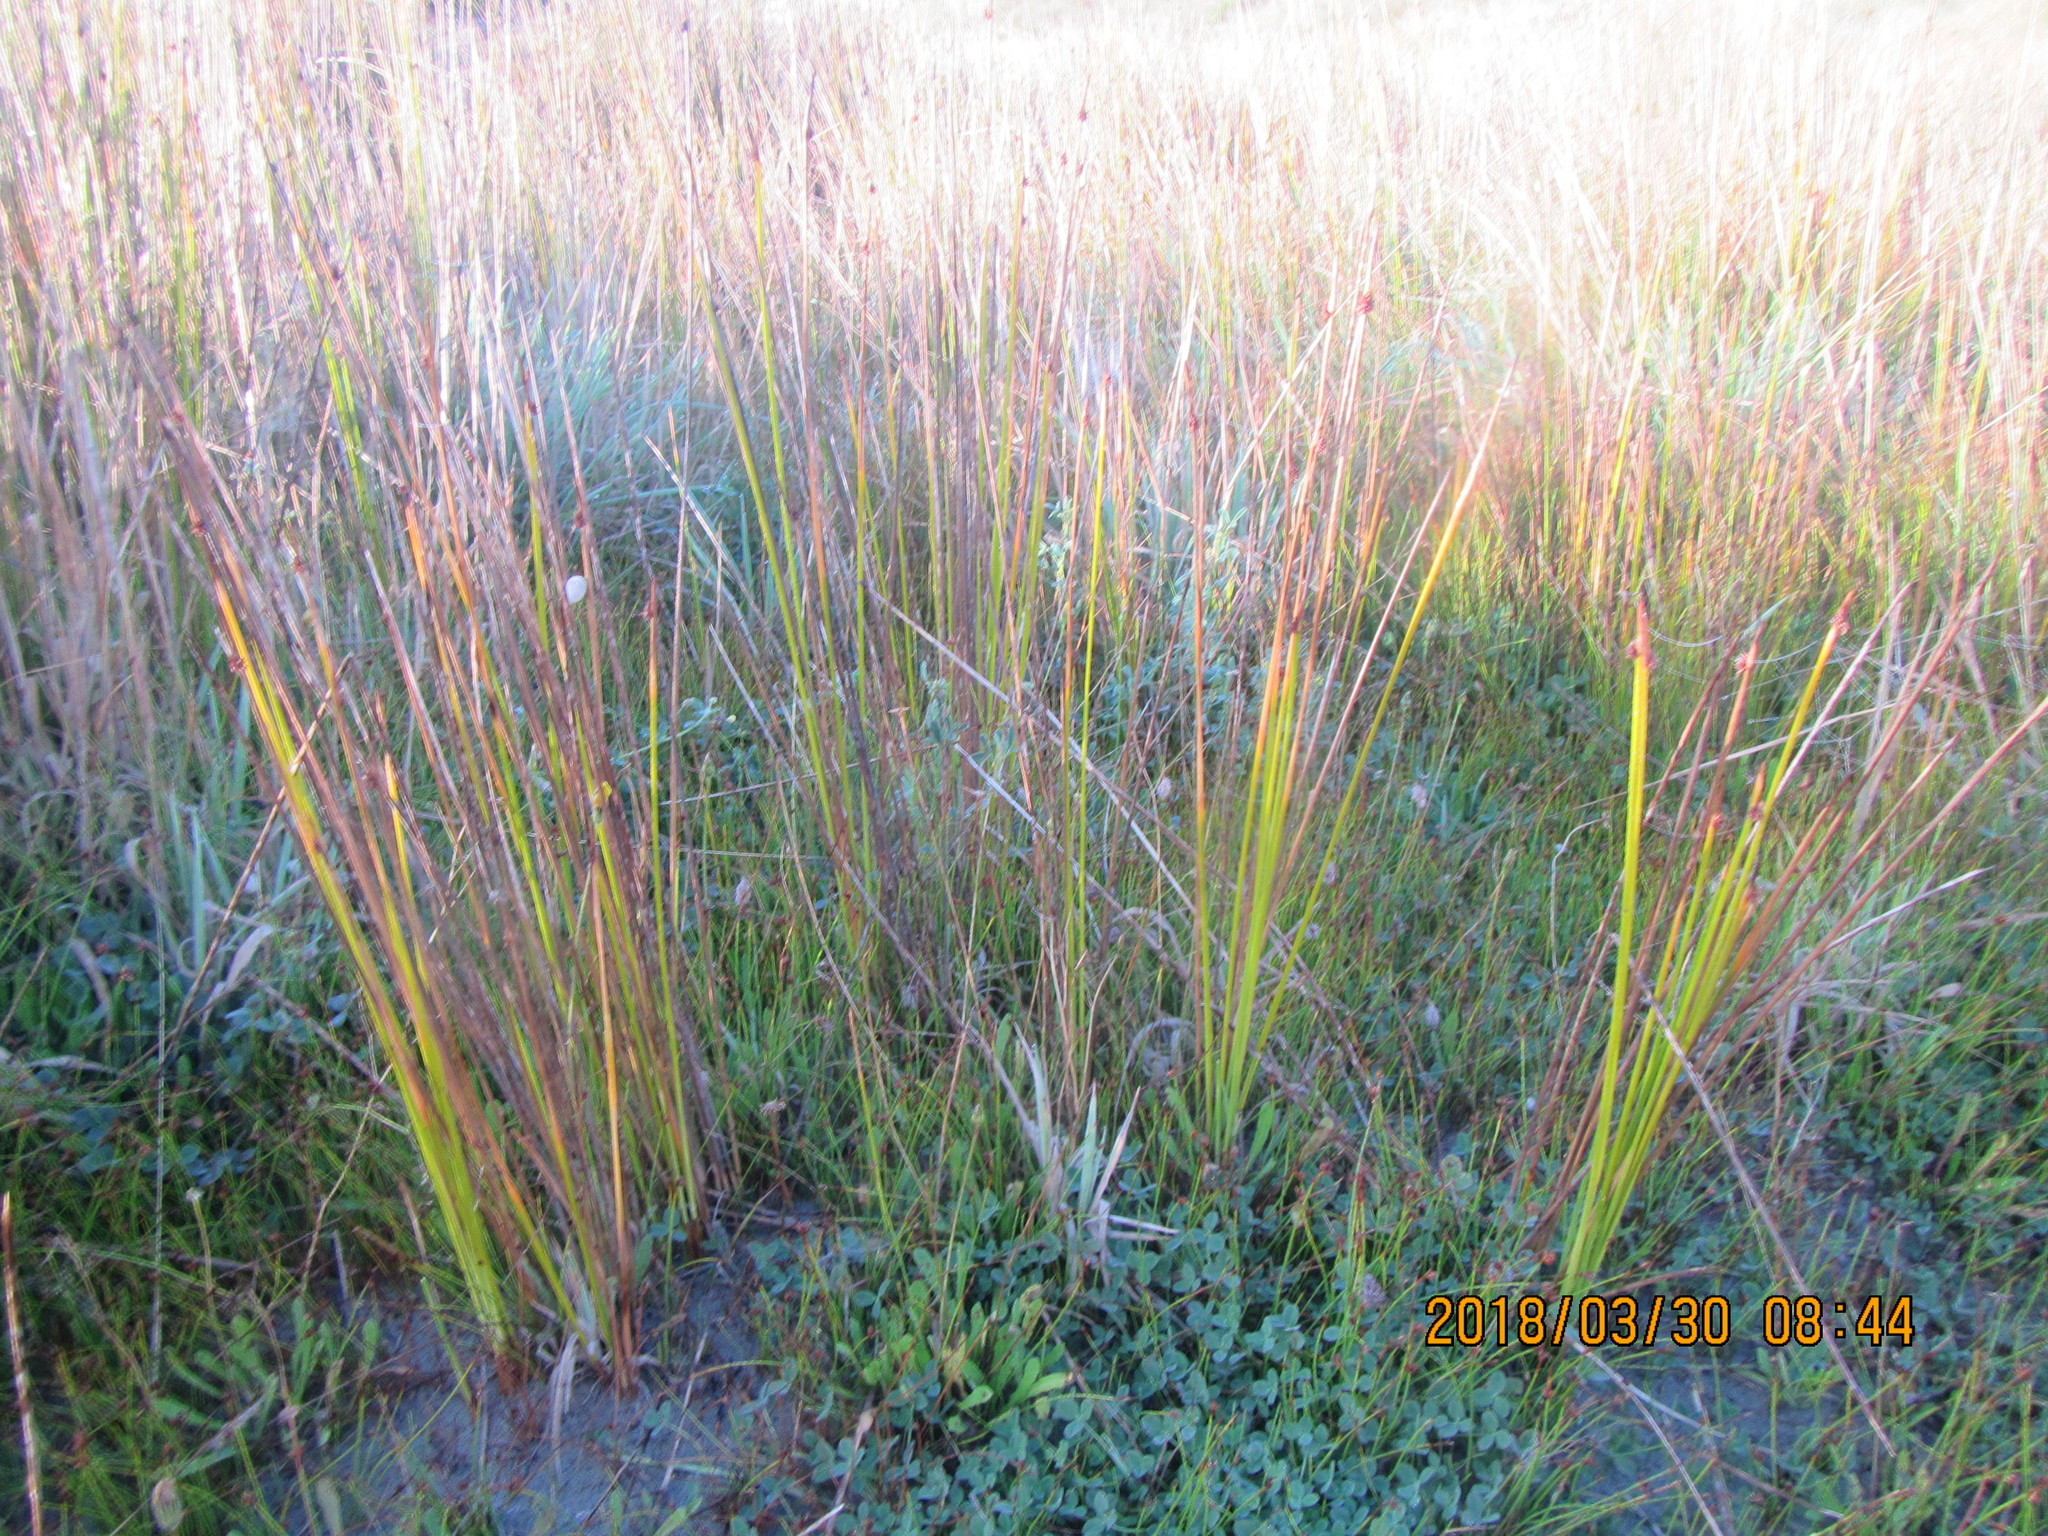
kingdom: Plantae
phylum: Tracheophyta
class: Liliopsida
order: Poales
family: Cyperaceae
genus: Ficinia
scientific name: Ficinia nodosa
